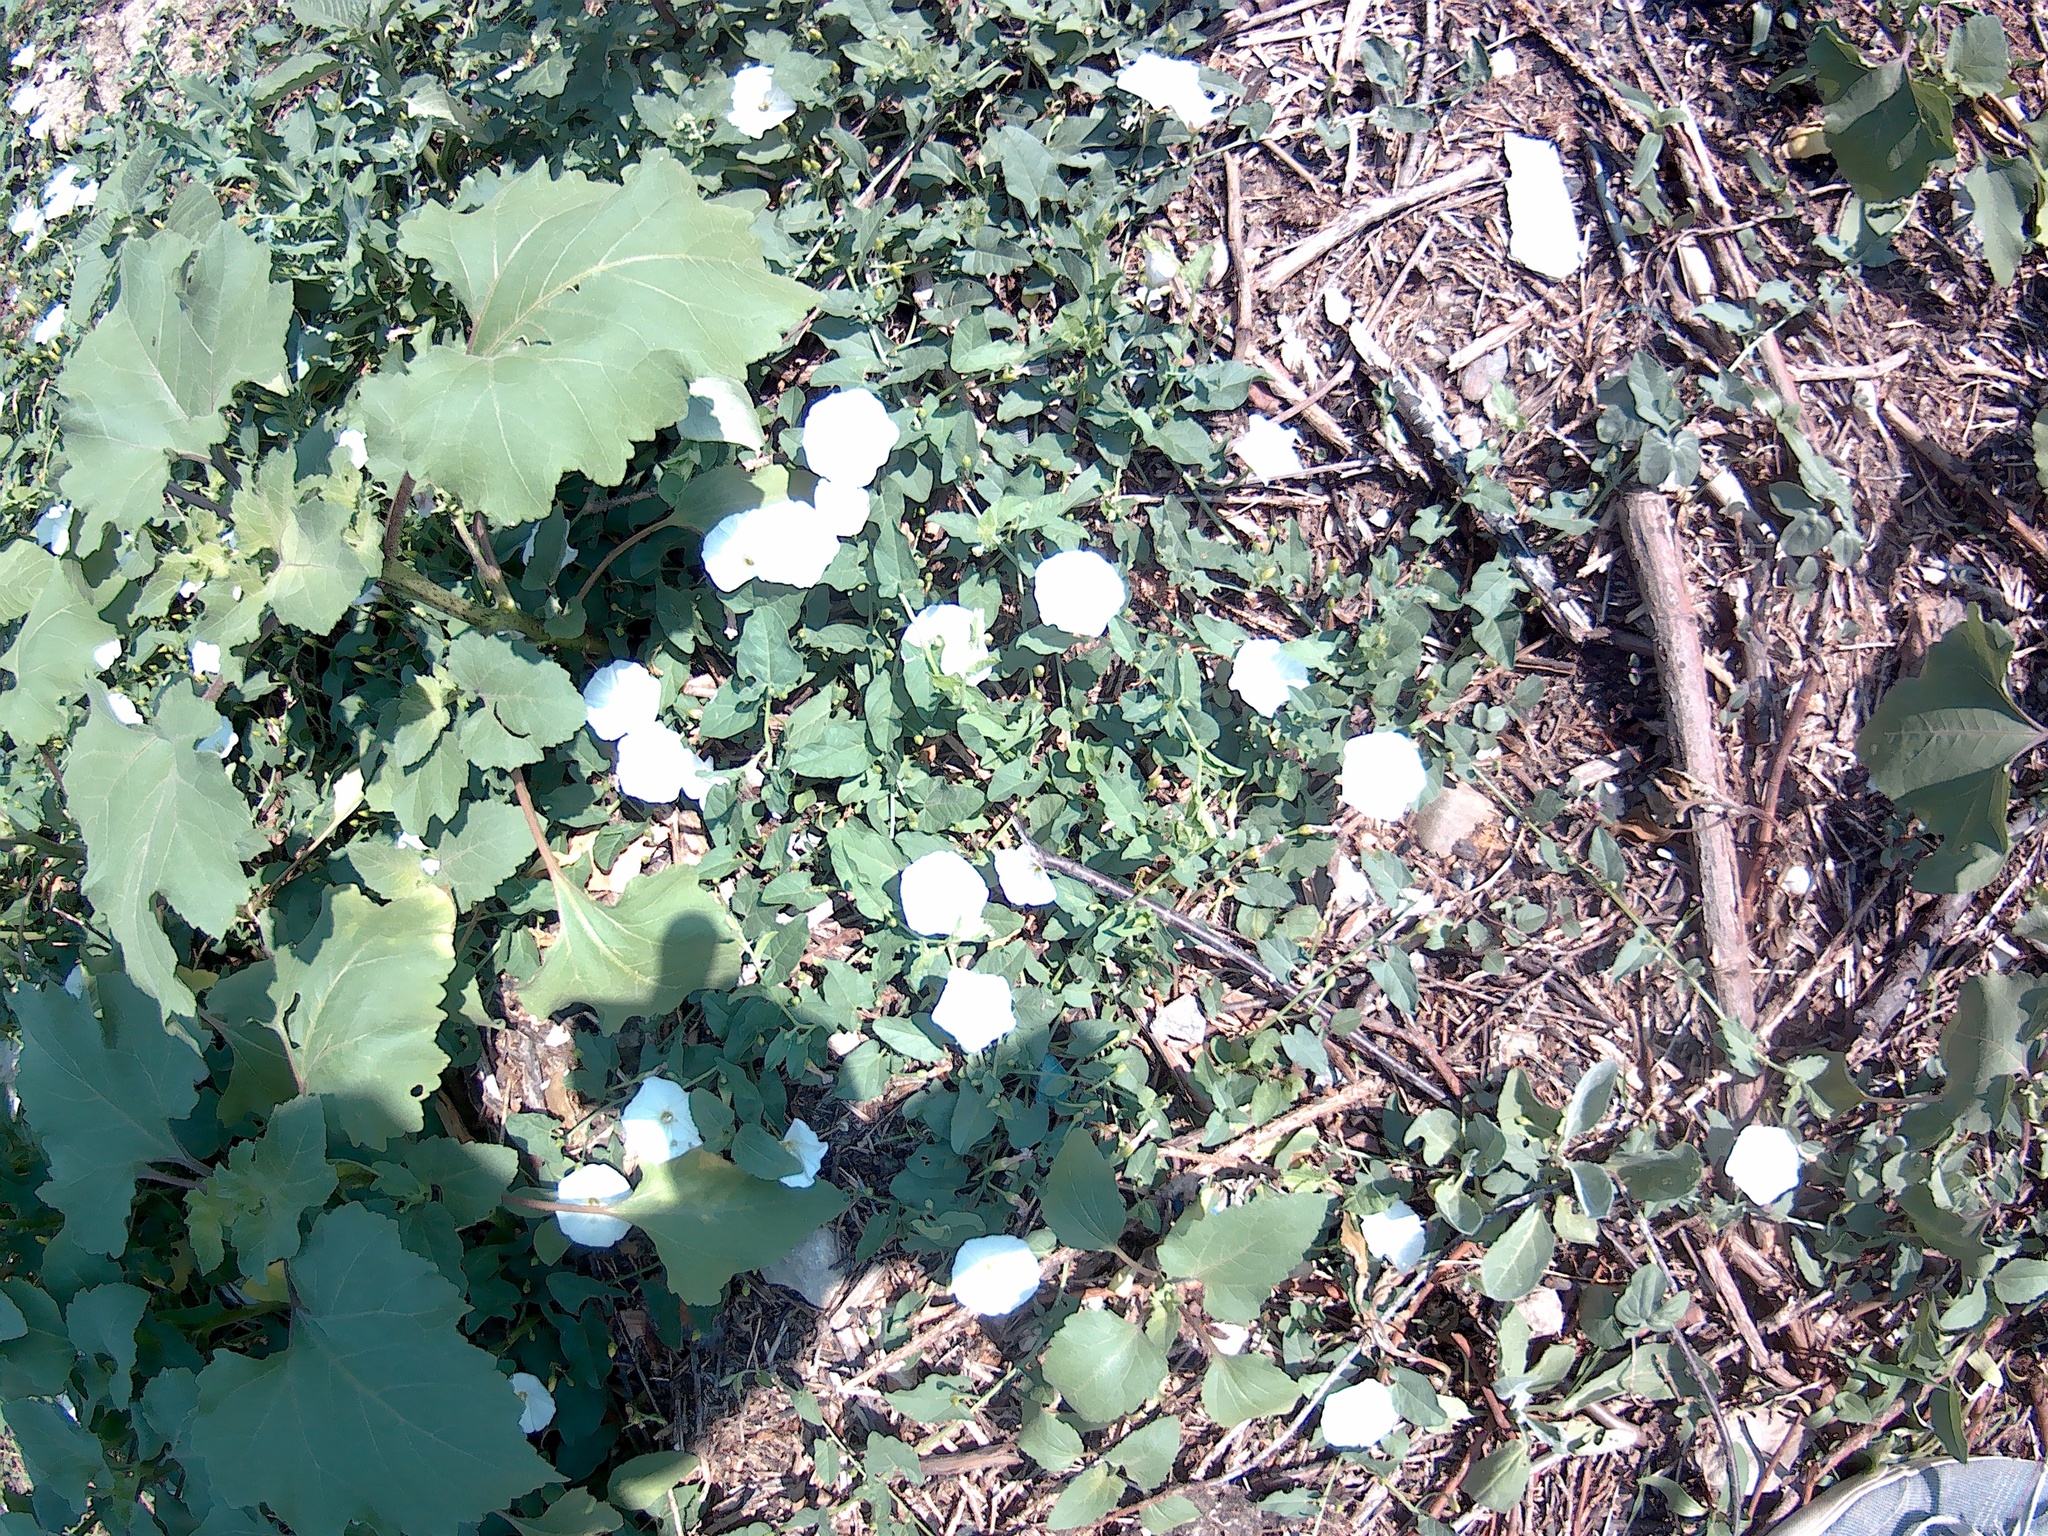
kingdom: Plantae
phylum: Tracheophyta
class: Magnoliopsida
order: Solanales
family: Convolvulaceae
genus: Convolvulus
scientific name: Convolvulus arvensis
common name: Field bindweed
